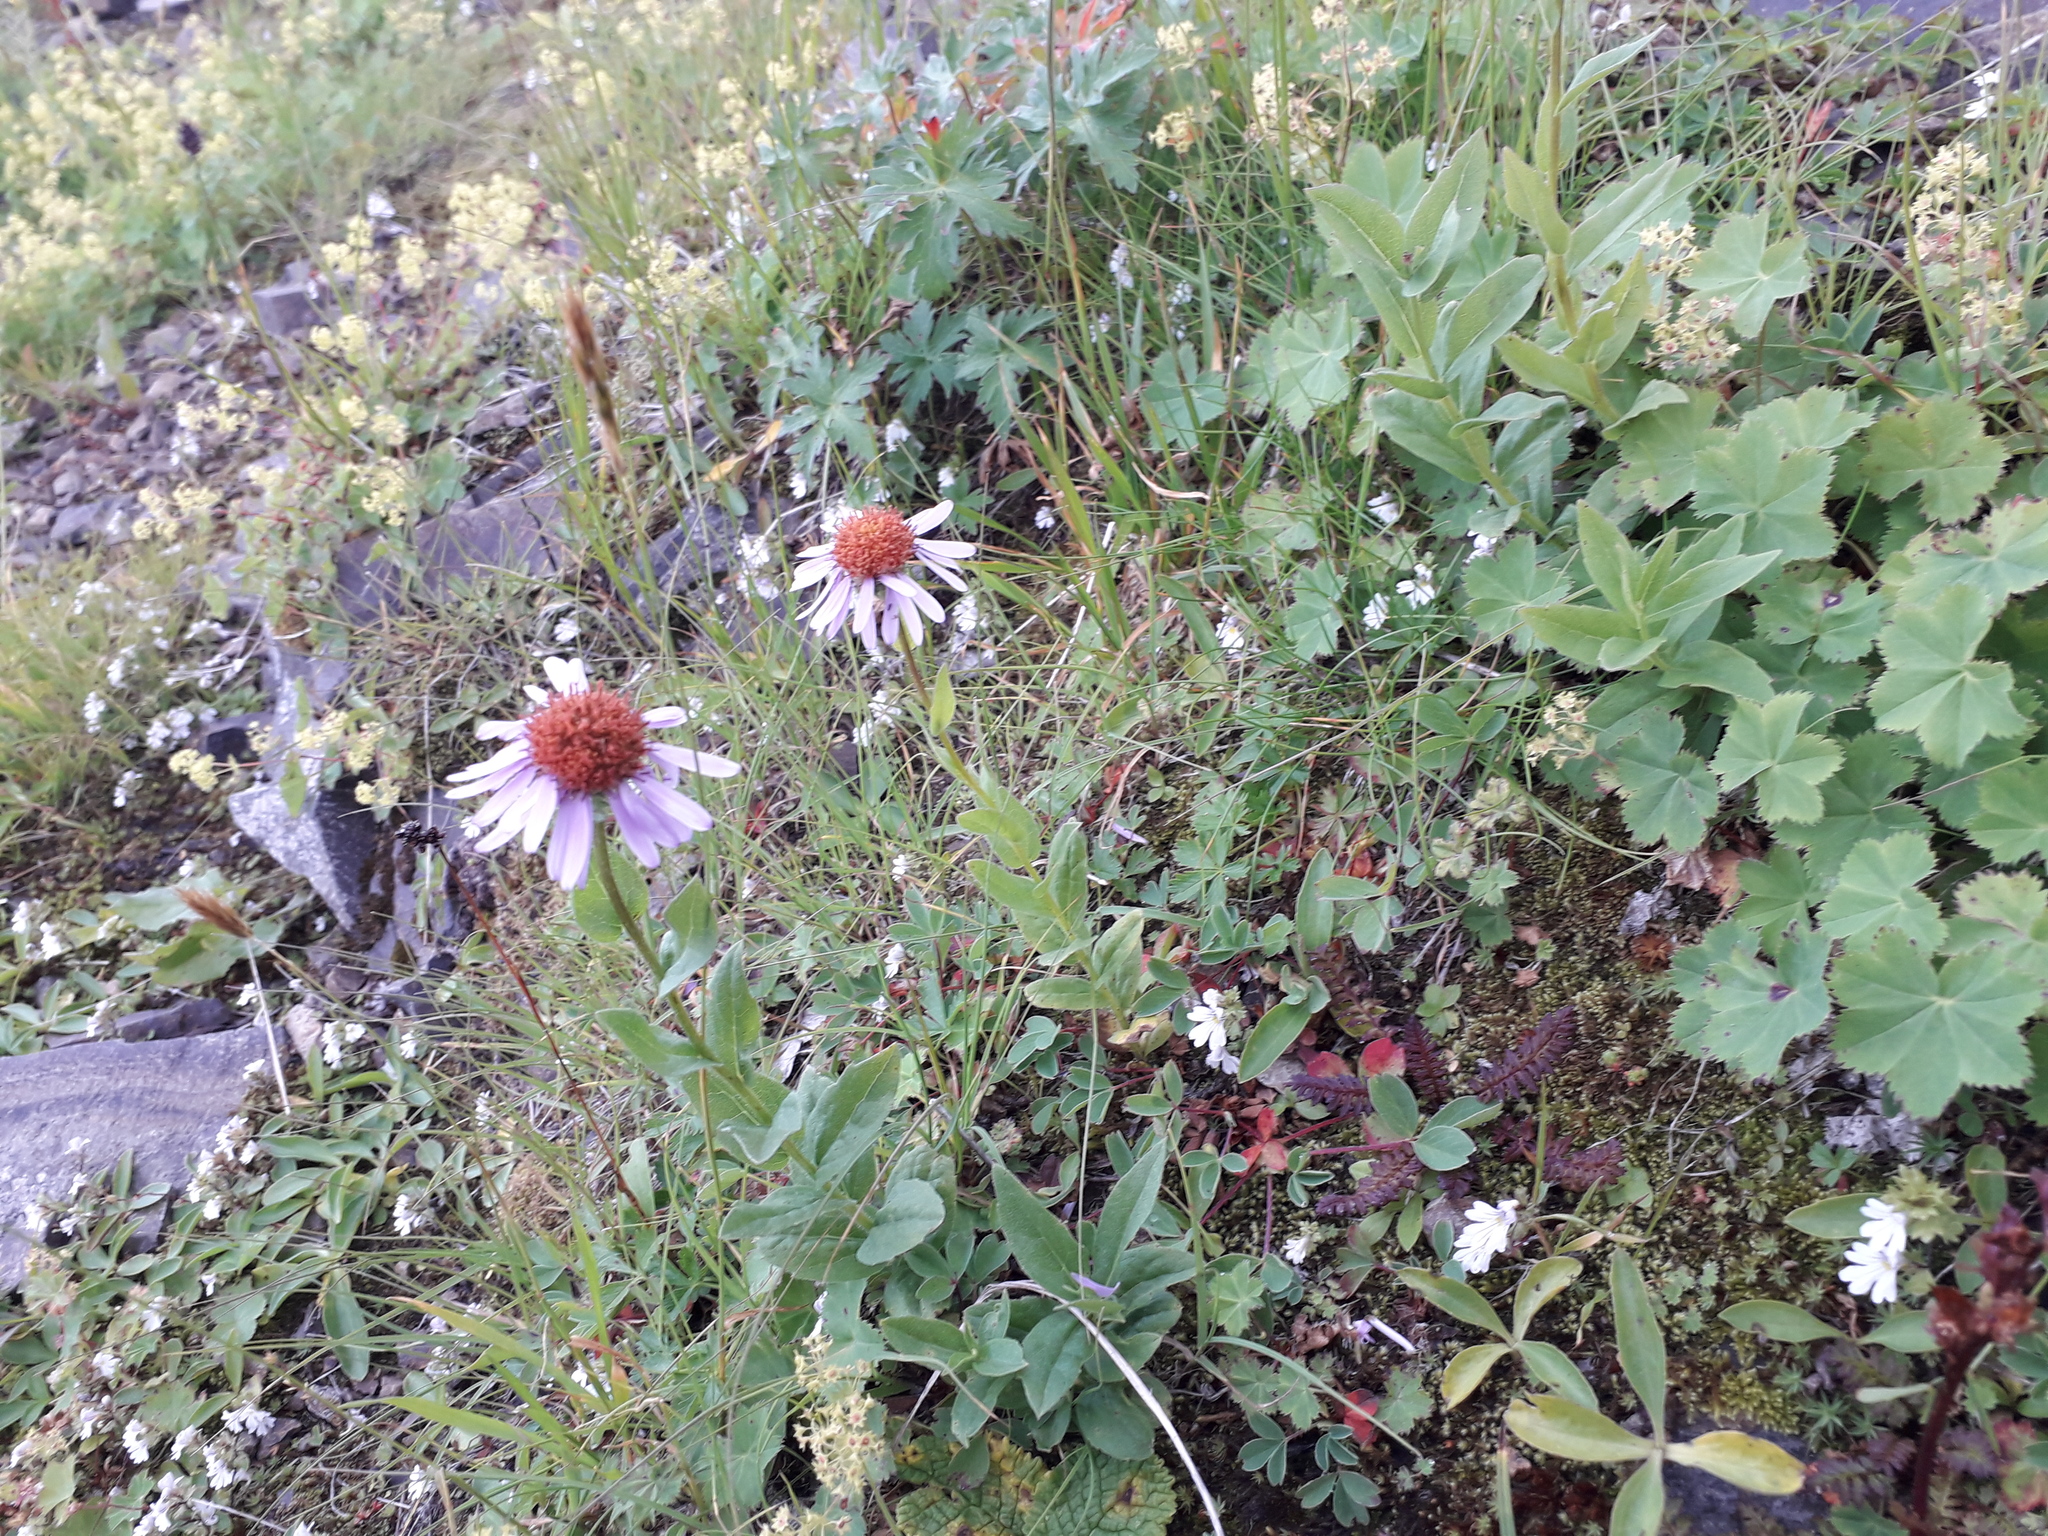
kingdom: Plantae
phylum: Tracheophyta
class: Magnoliopsida
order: Asterales
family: Asteraceae
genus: Kemulariella
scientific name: Kemulariella caucasica
